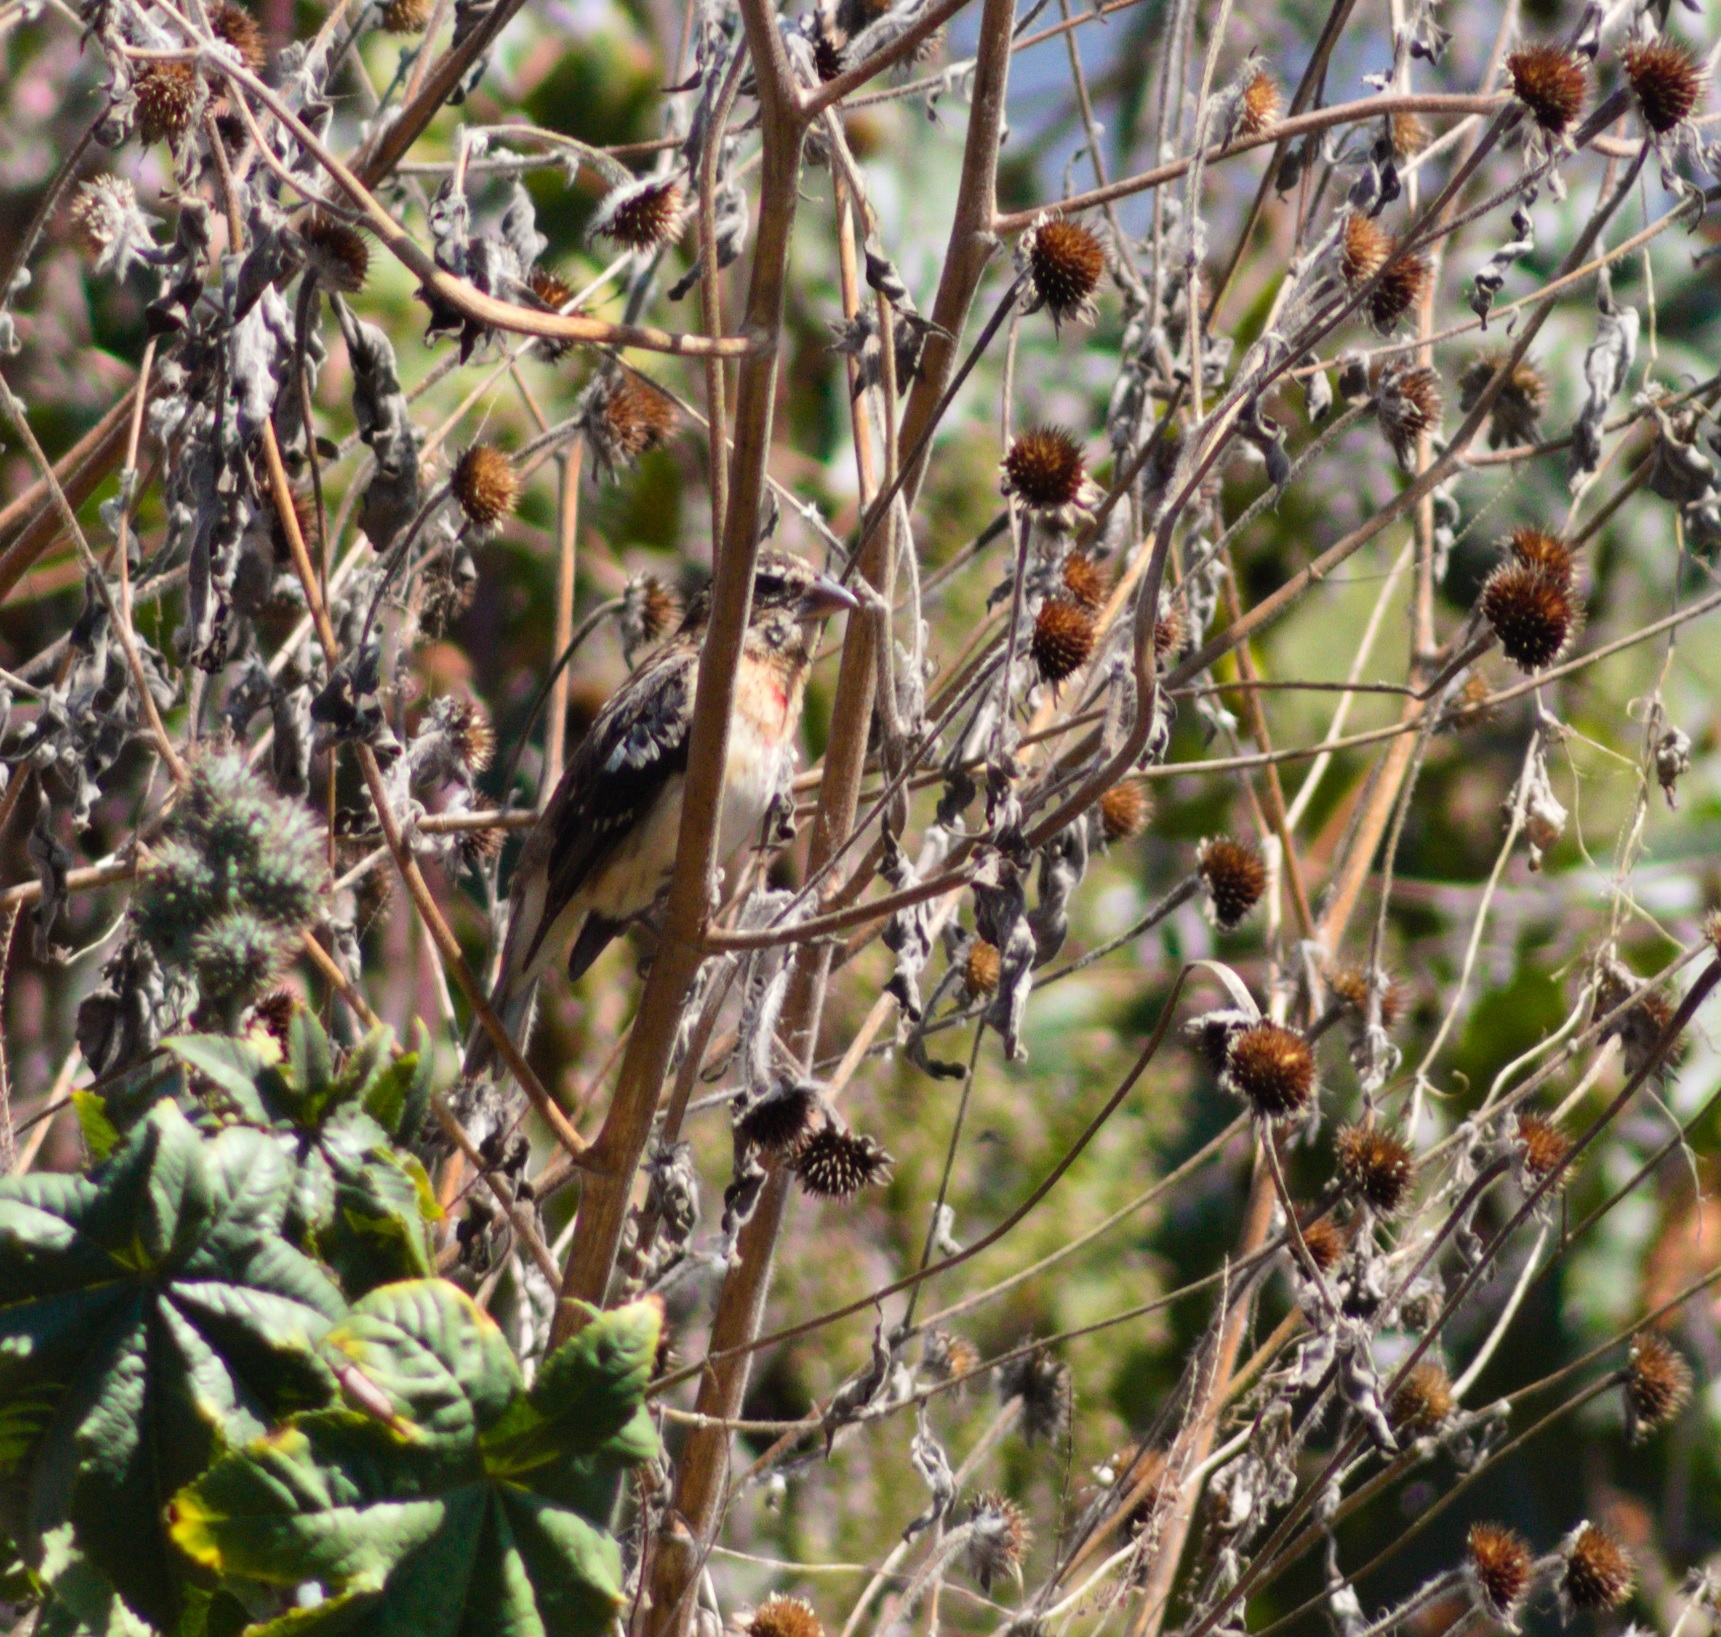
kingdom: Animalia
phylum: Chordata
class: Aves
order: Passeriformes
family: Cardinalidae
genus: Pheucticus
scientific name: Pheucticus ludovicianus
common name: Rose-breasted grosbeak
